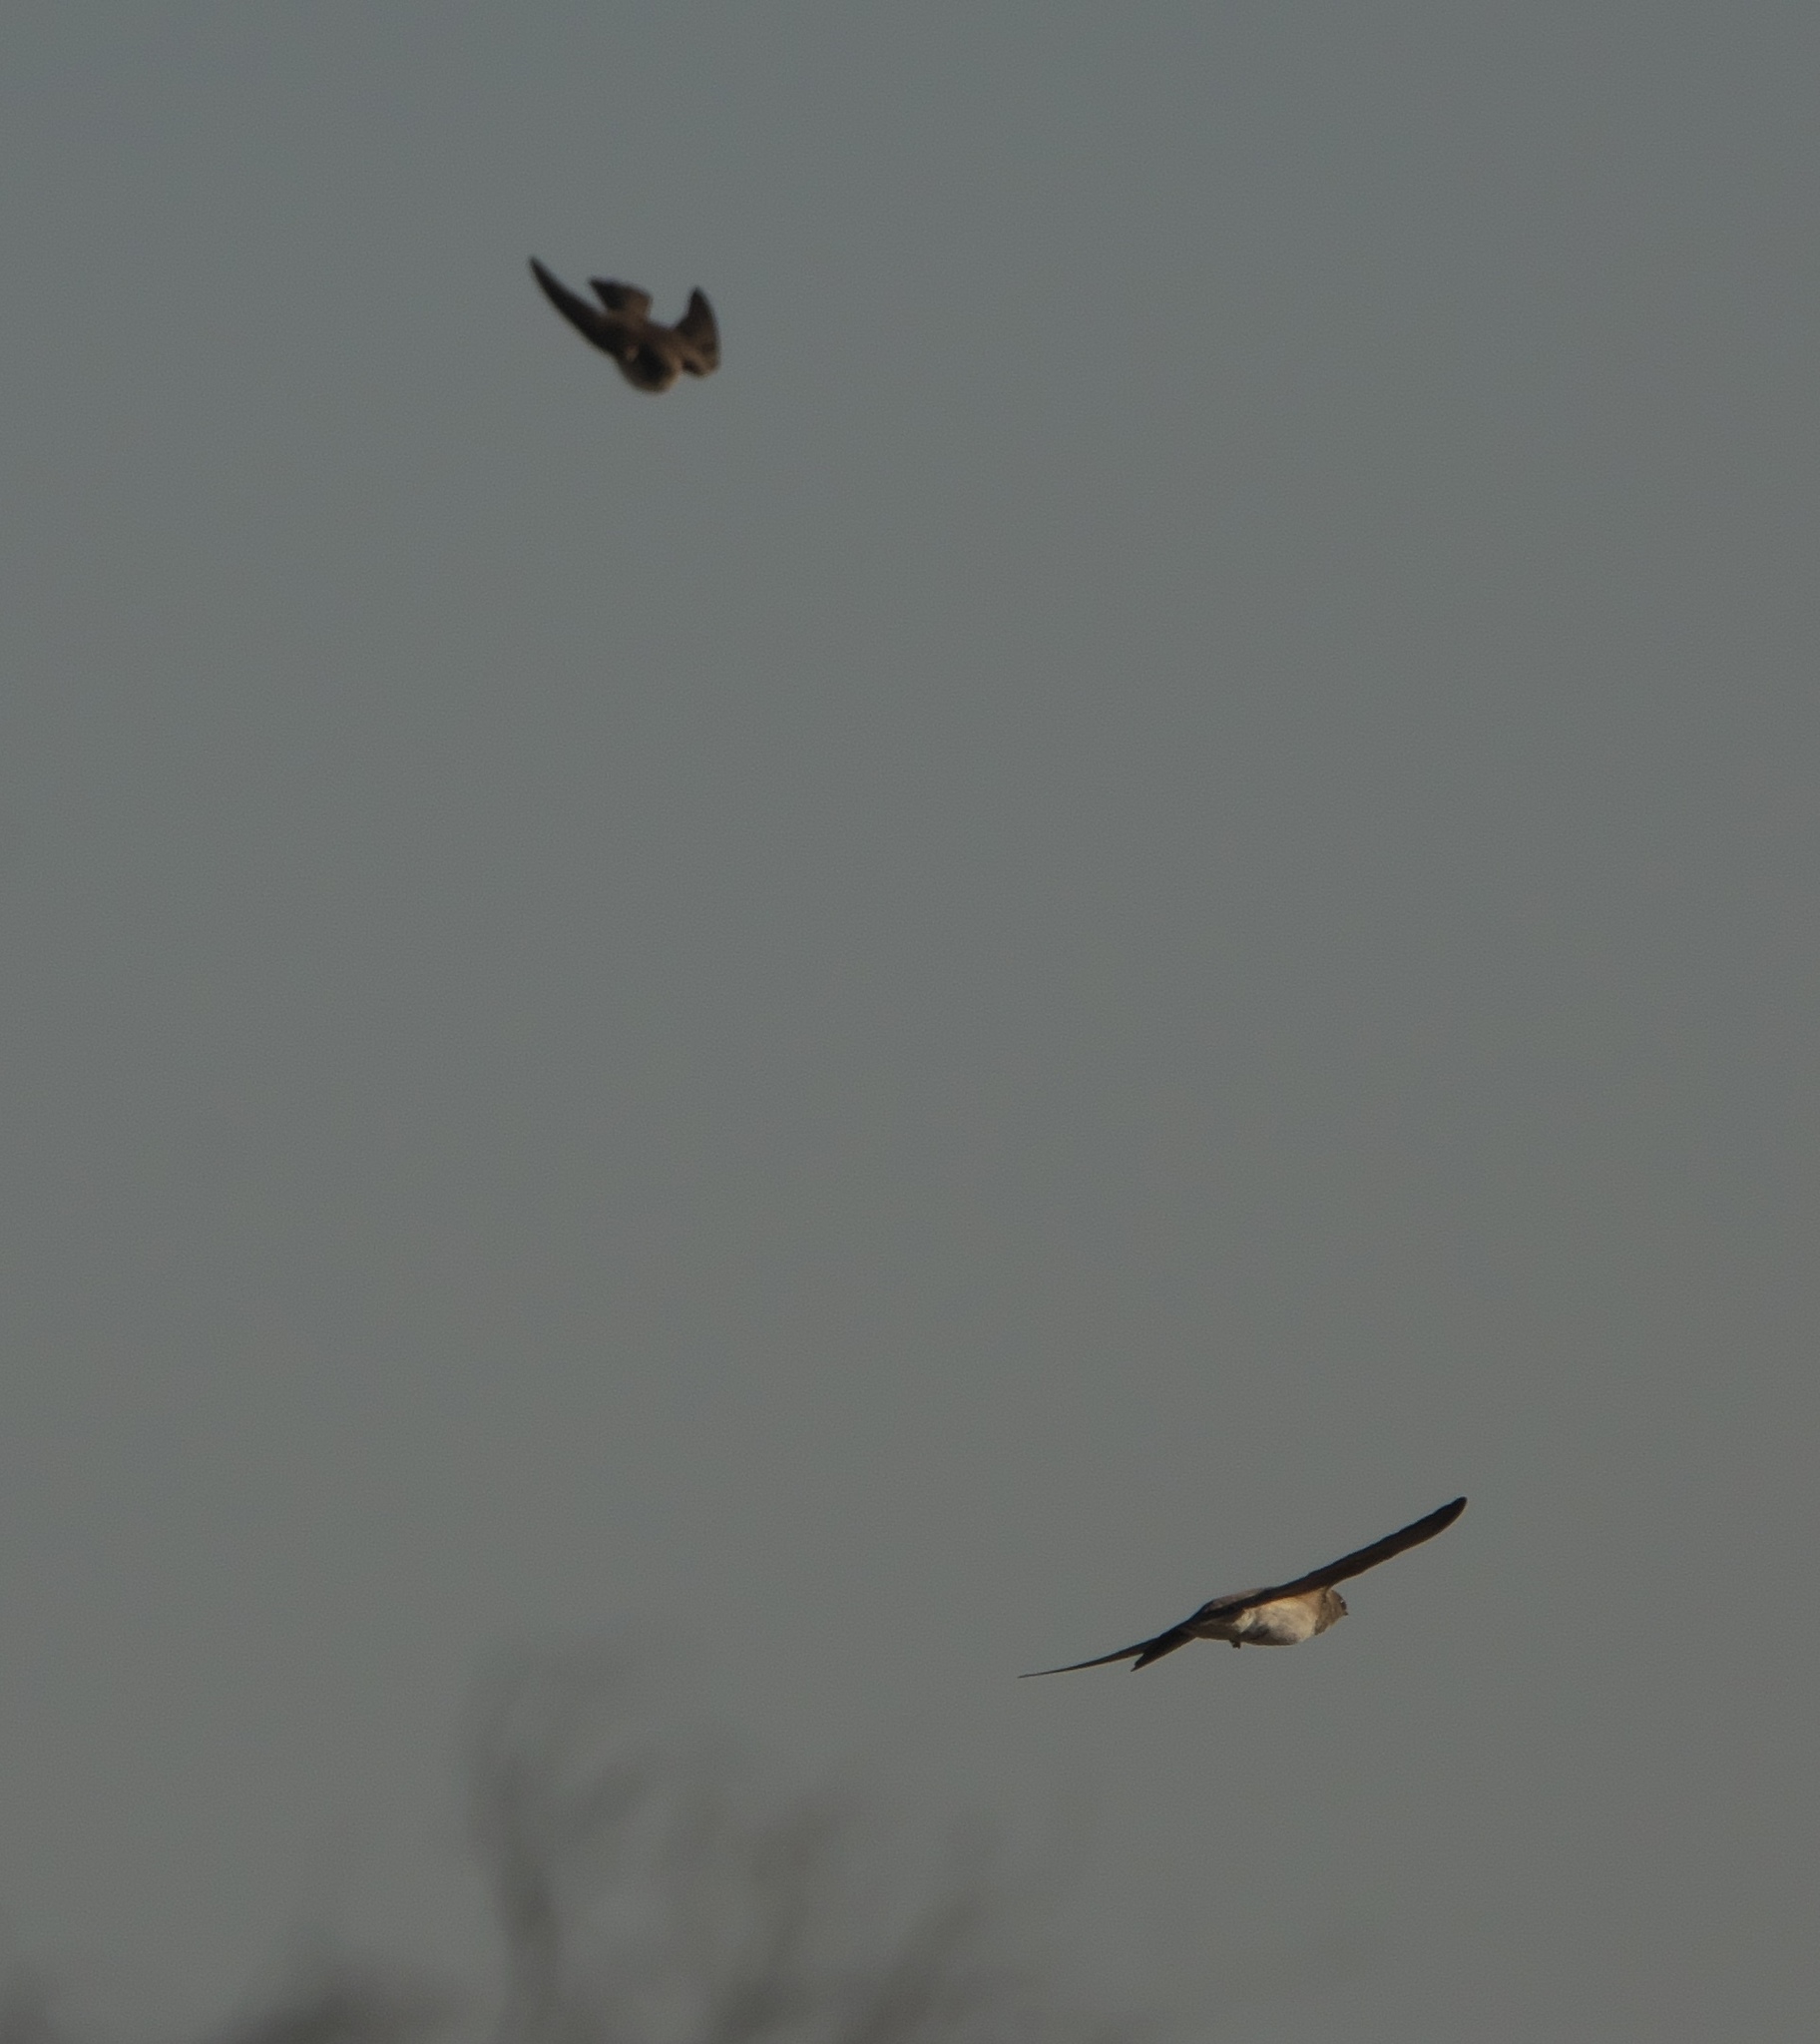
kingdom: Animalia
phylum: Chordata
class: Aves
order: Passeriformes
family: Hirundinidae
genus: Stelgidopteryx
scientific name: Stelgidopteryx serripennis
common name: Northern rough-winged swallow
